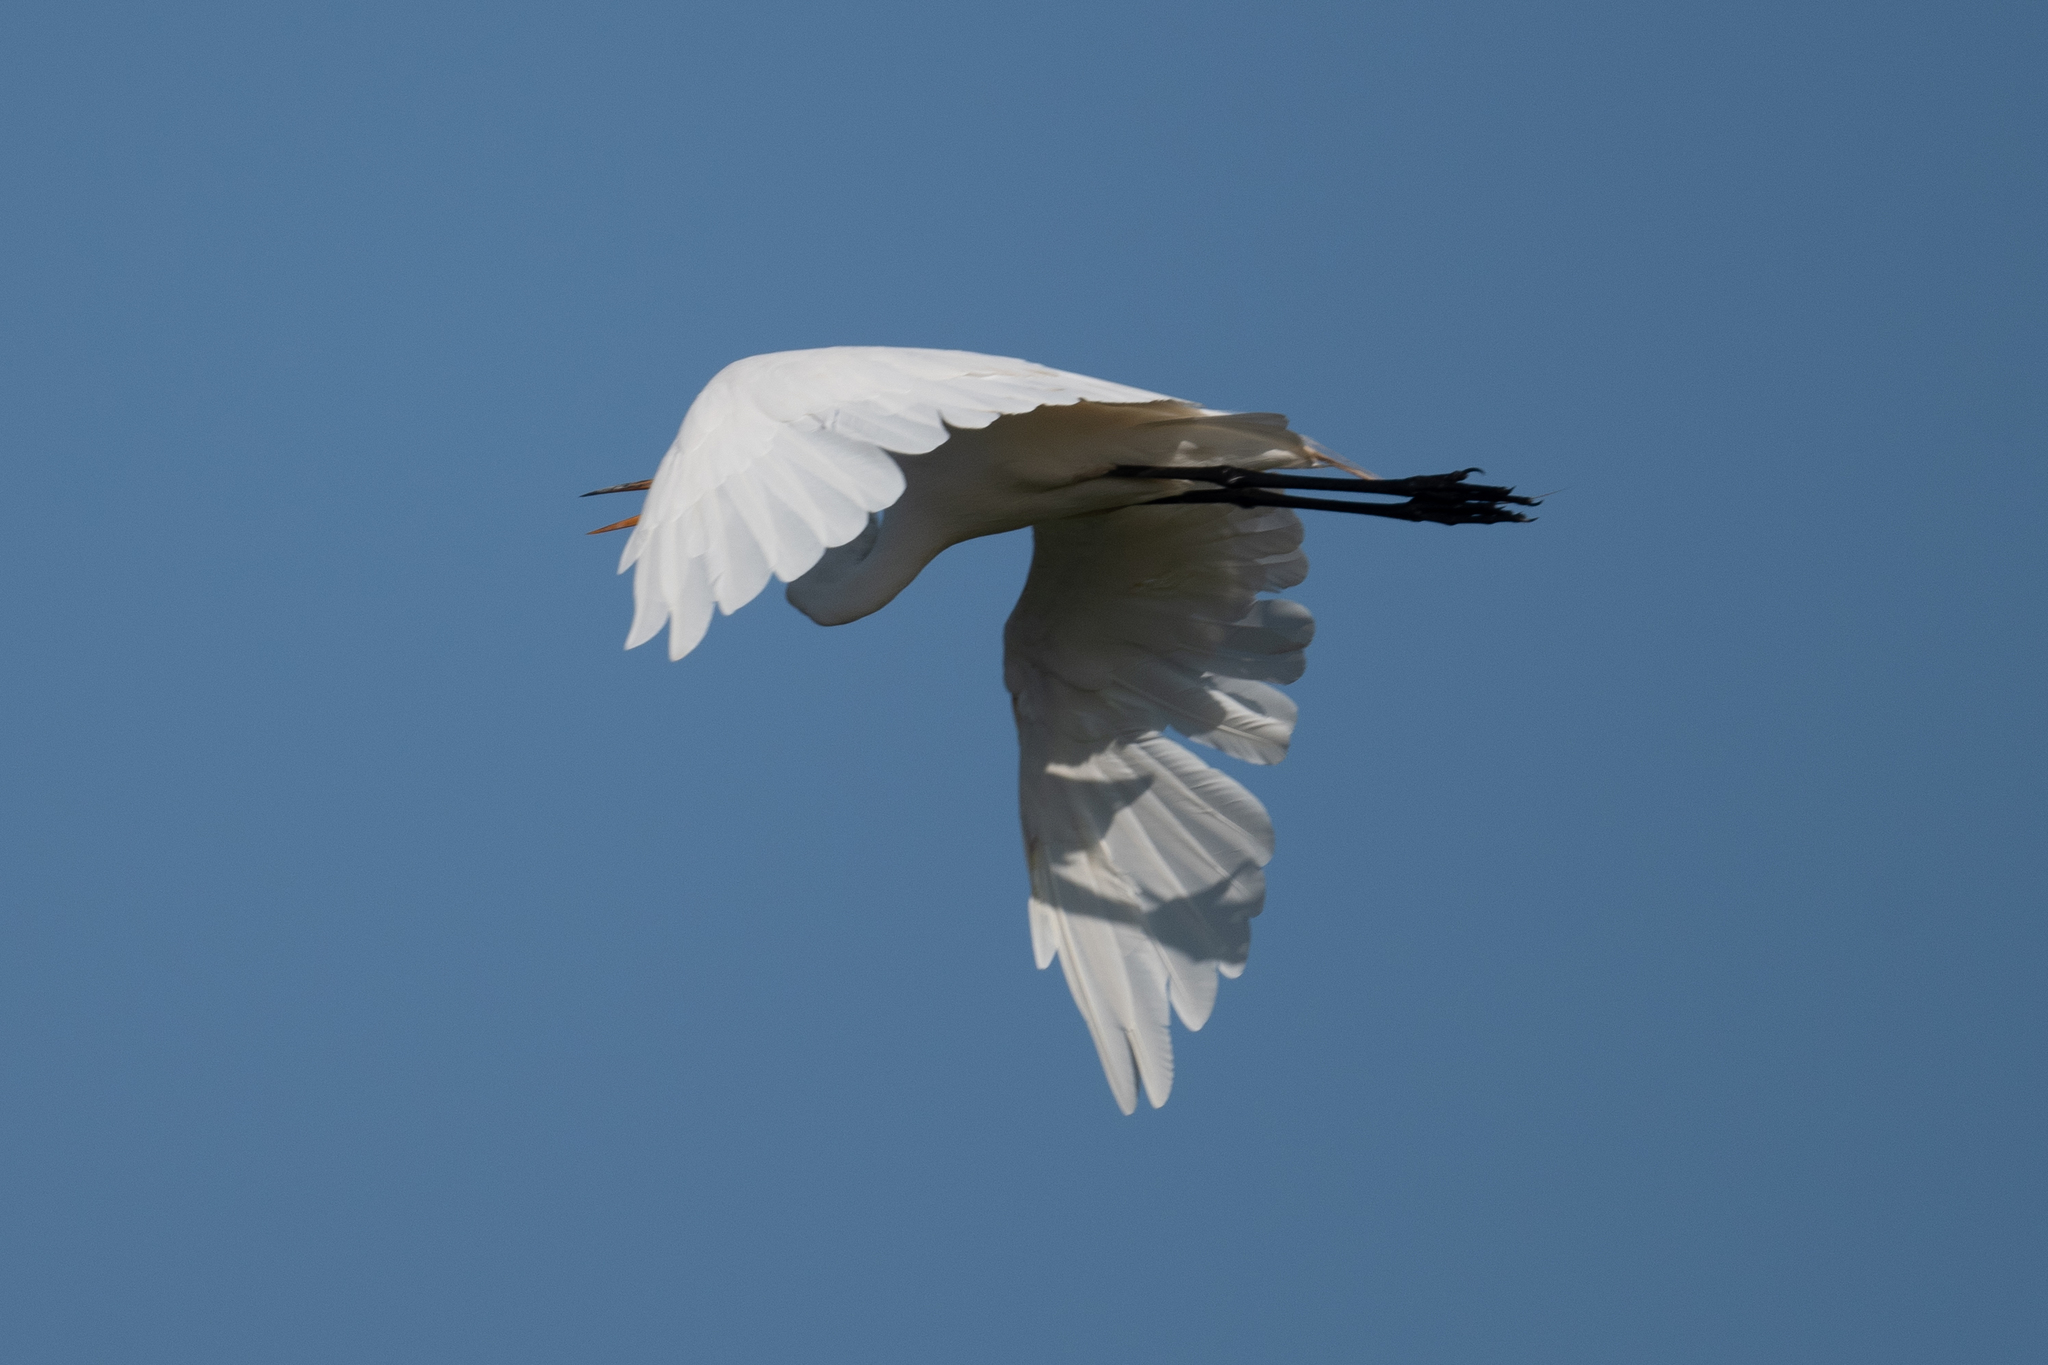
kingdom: Animalia
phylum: Chordata
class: Aves
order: Pelecaniformes
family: Ardeidae
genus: Ardea
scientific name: Ardea alba
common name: Great egret
